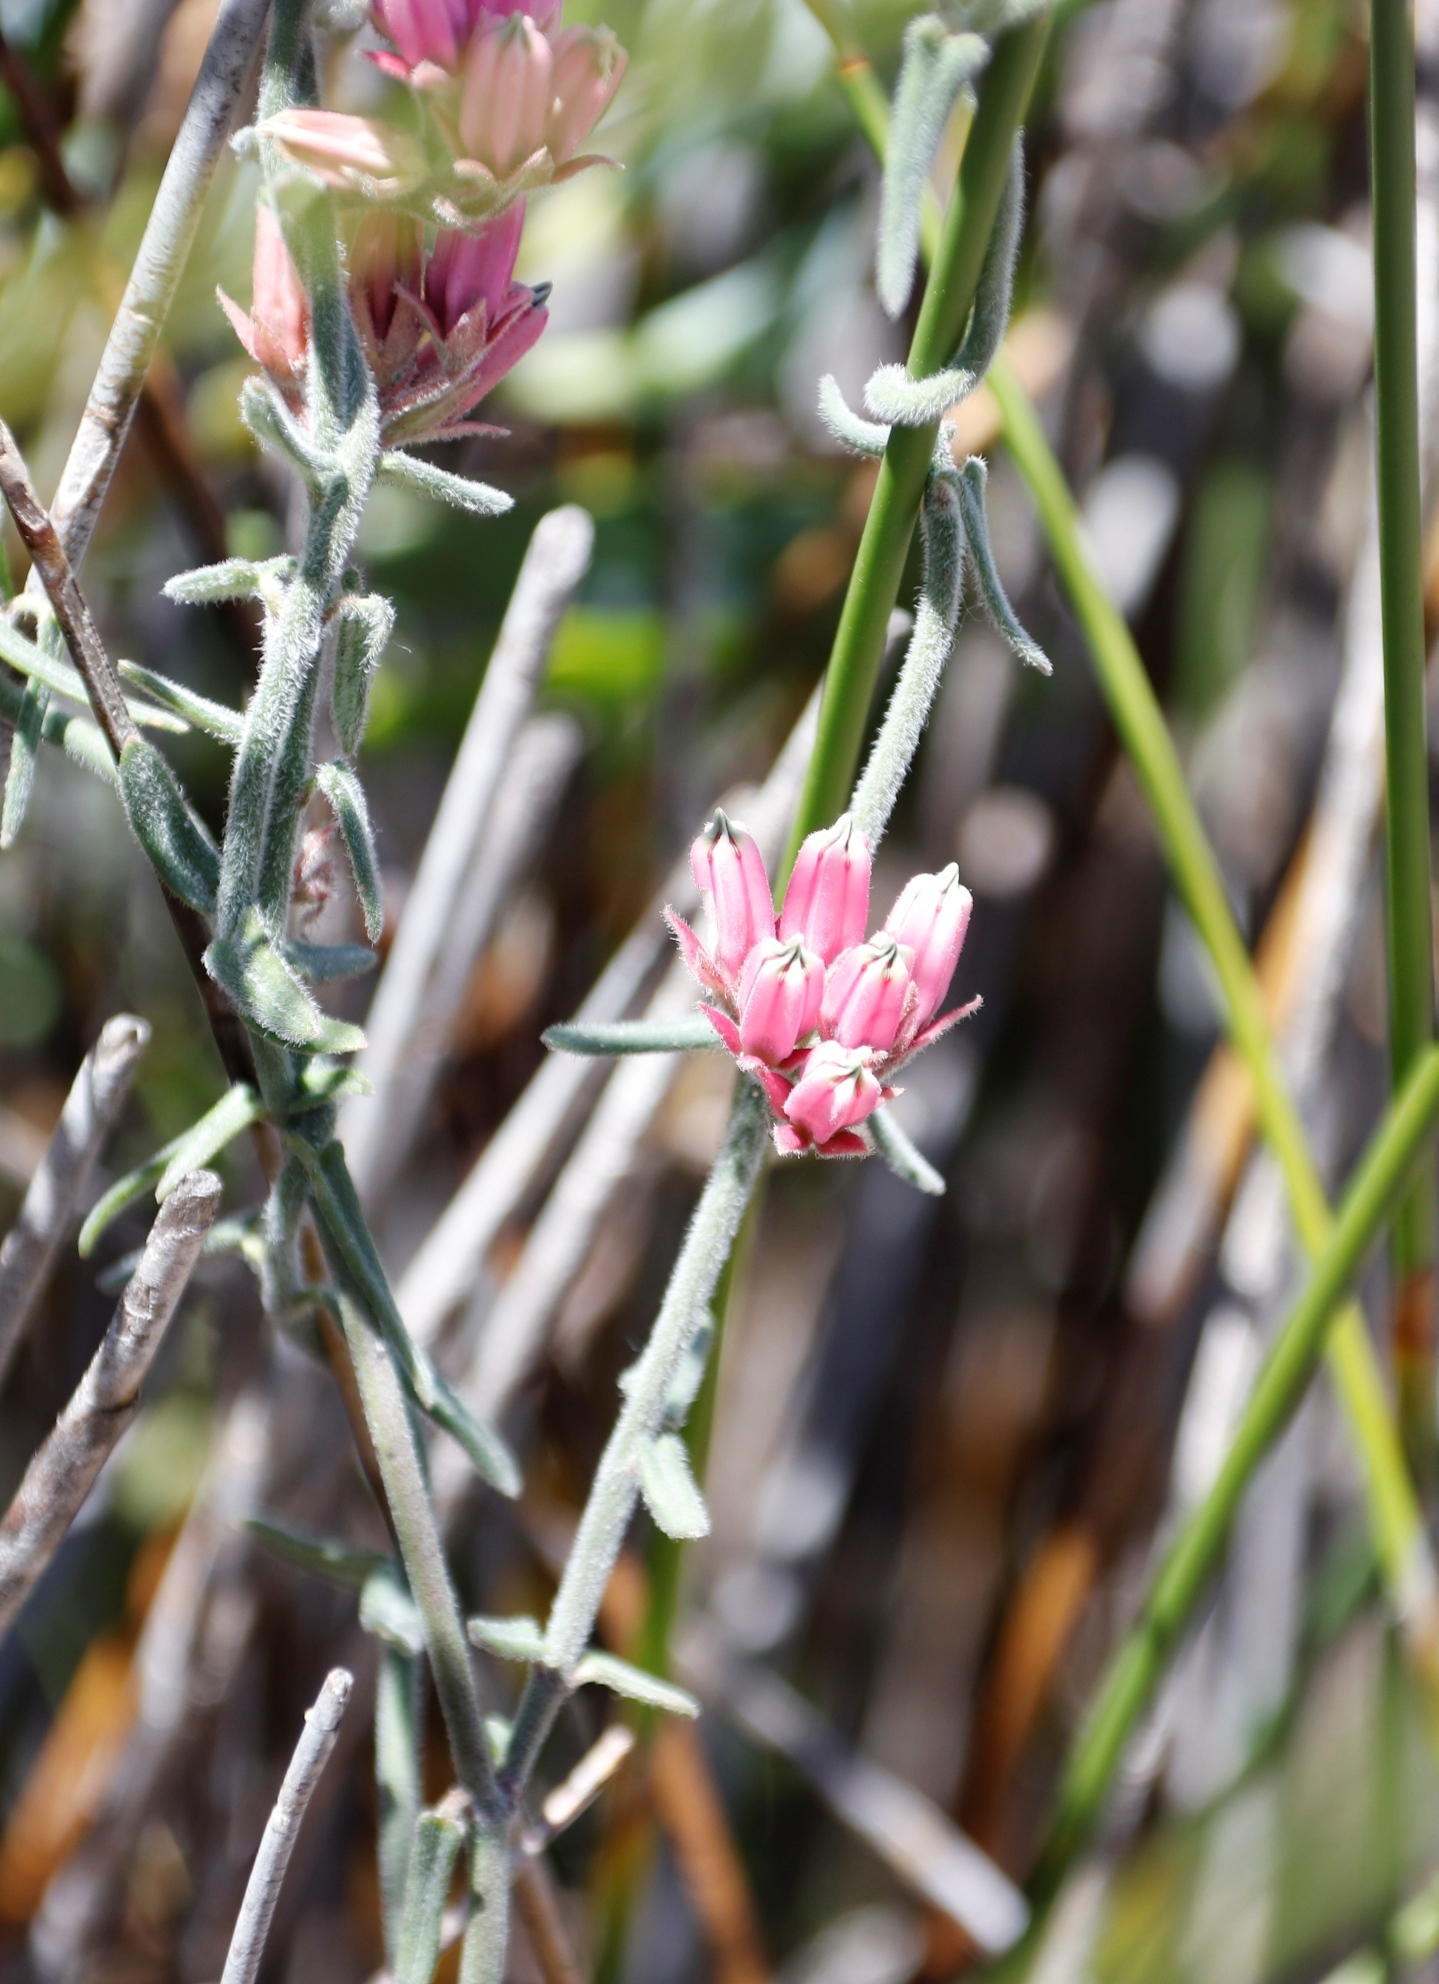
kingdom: Plantae
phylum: Tracheophyta
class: Magnoliopsida
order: Gentianales
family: Apocynaceae
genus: Microloma
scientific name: Microloma sagittatum
